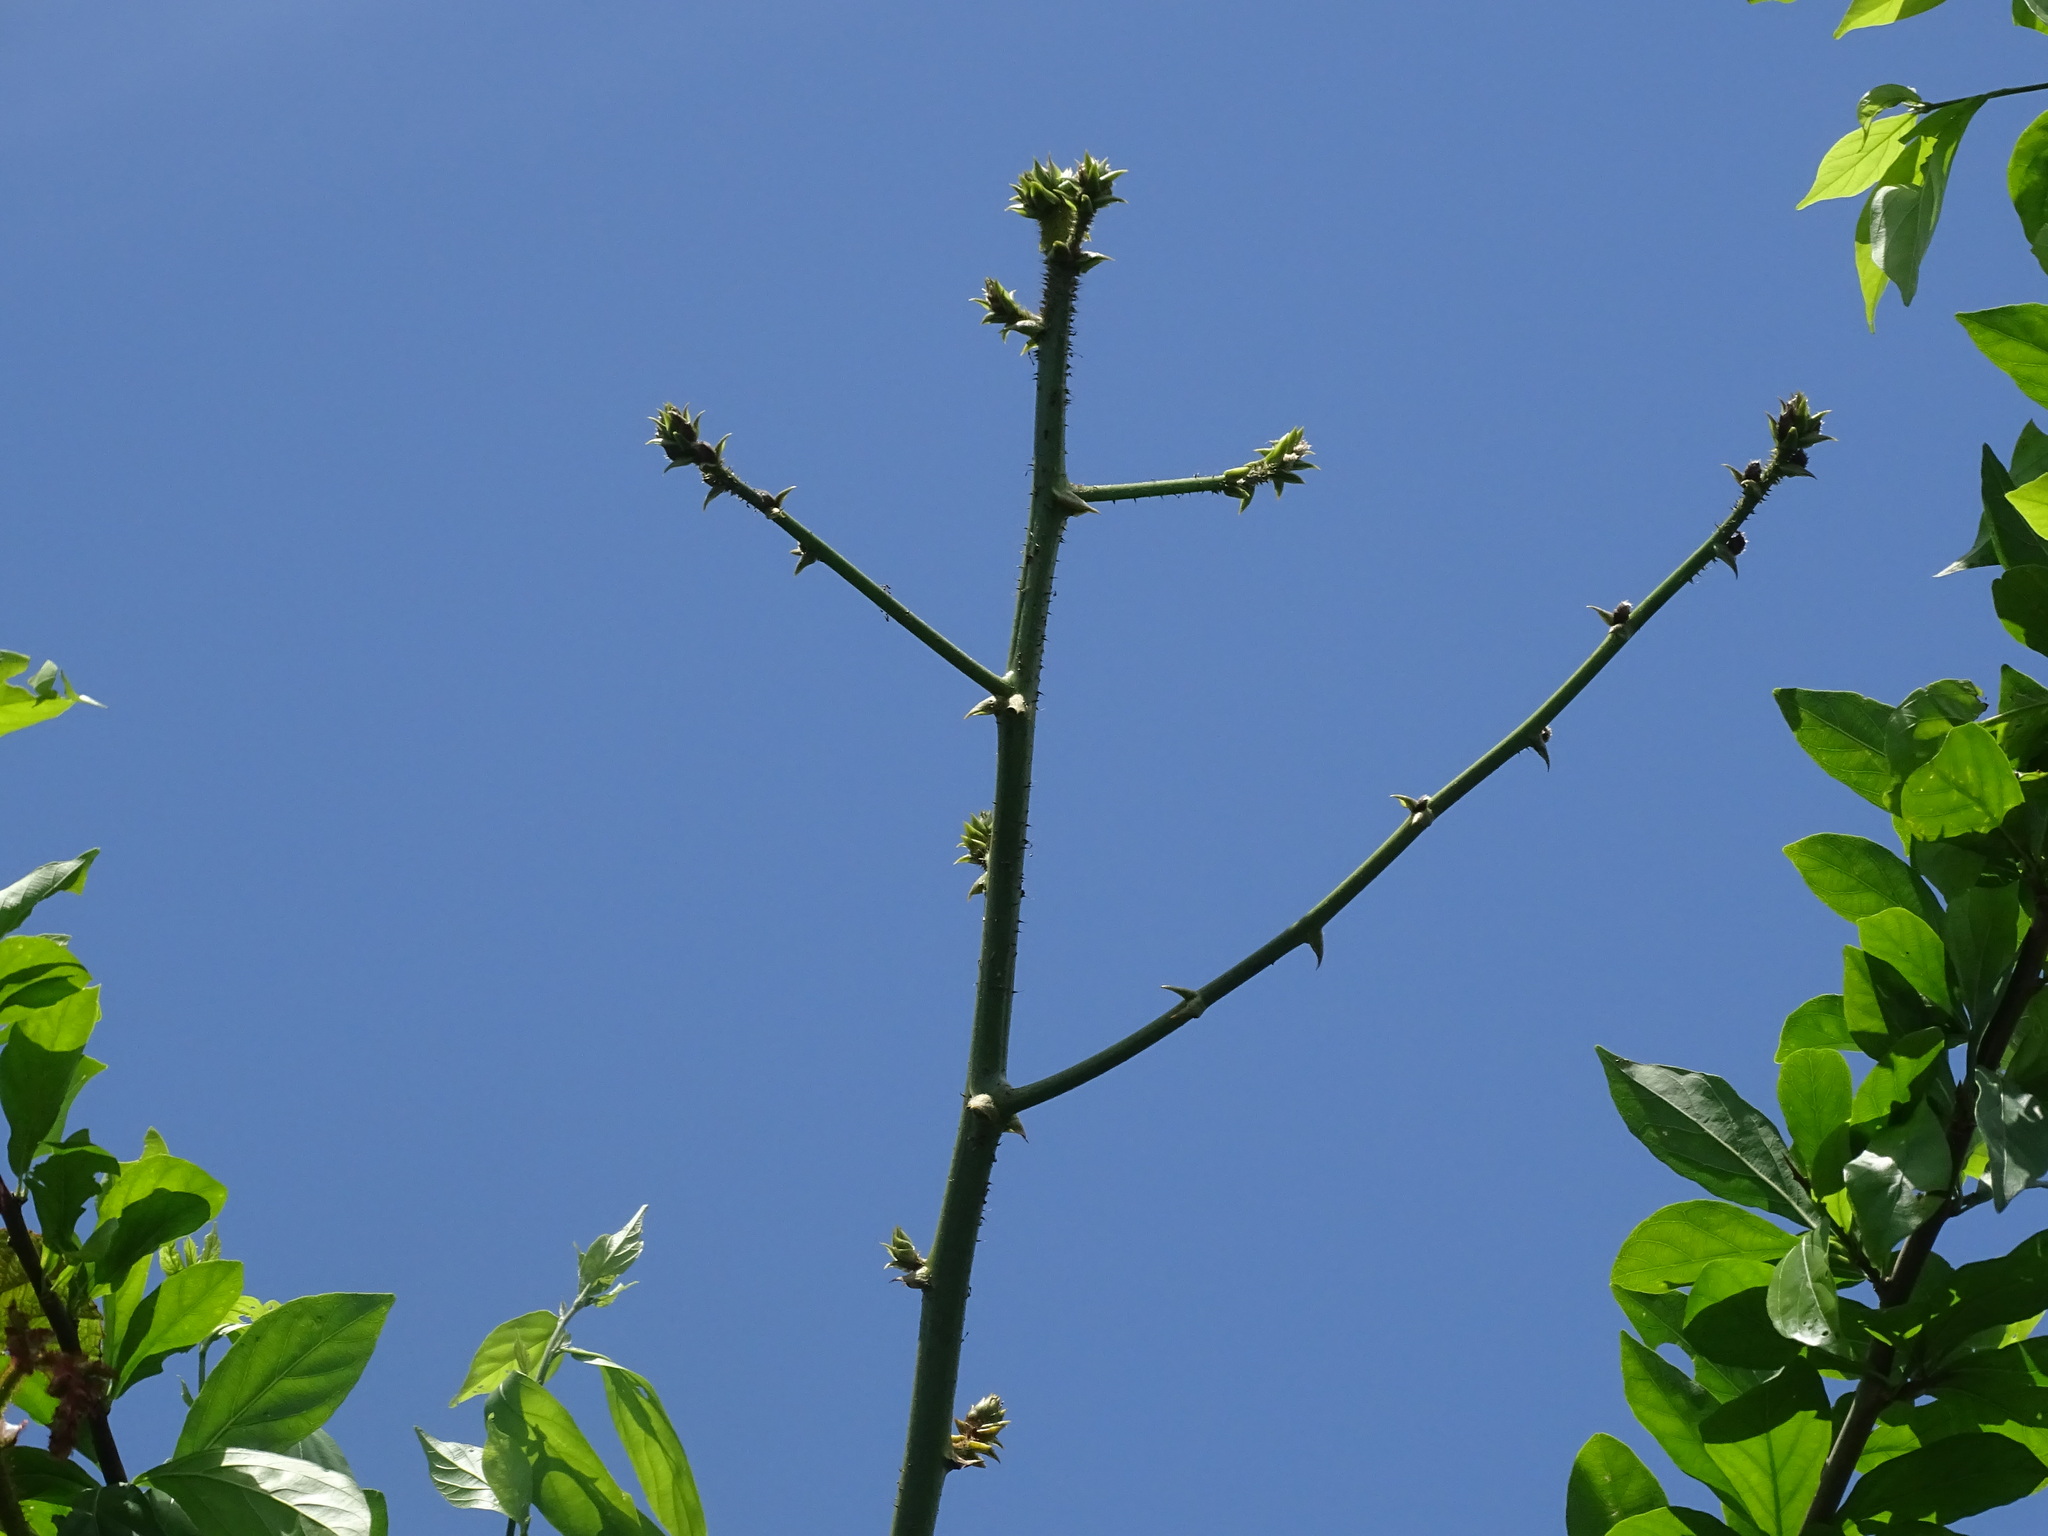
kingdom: Plantae
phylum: Tracheophyta
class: Magnoliopsida
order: Fabales
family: Fabaceae
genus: Machaerium
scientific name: Machaerium isadelphum
